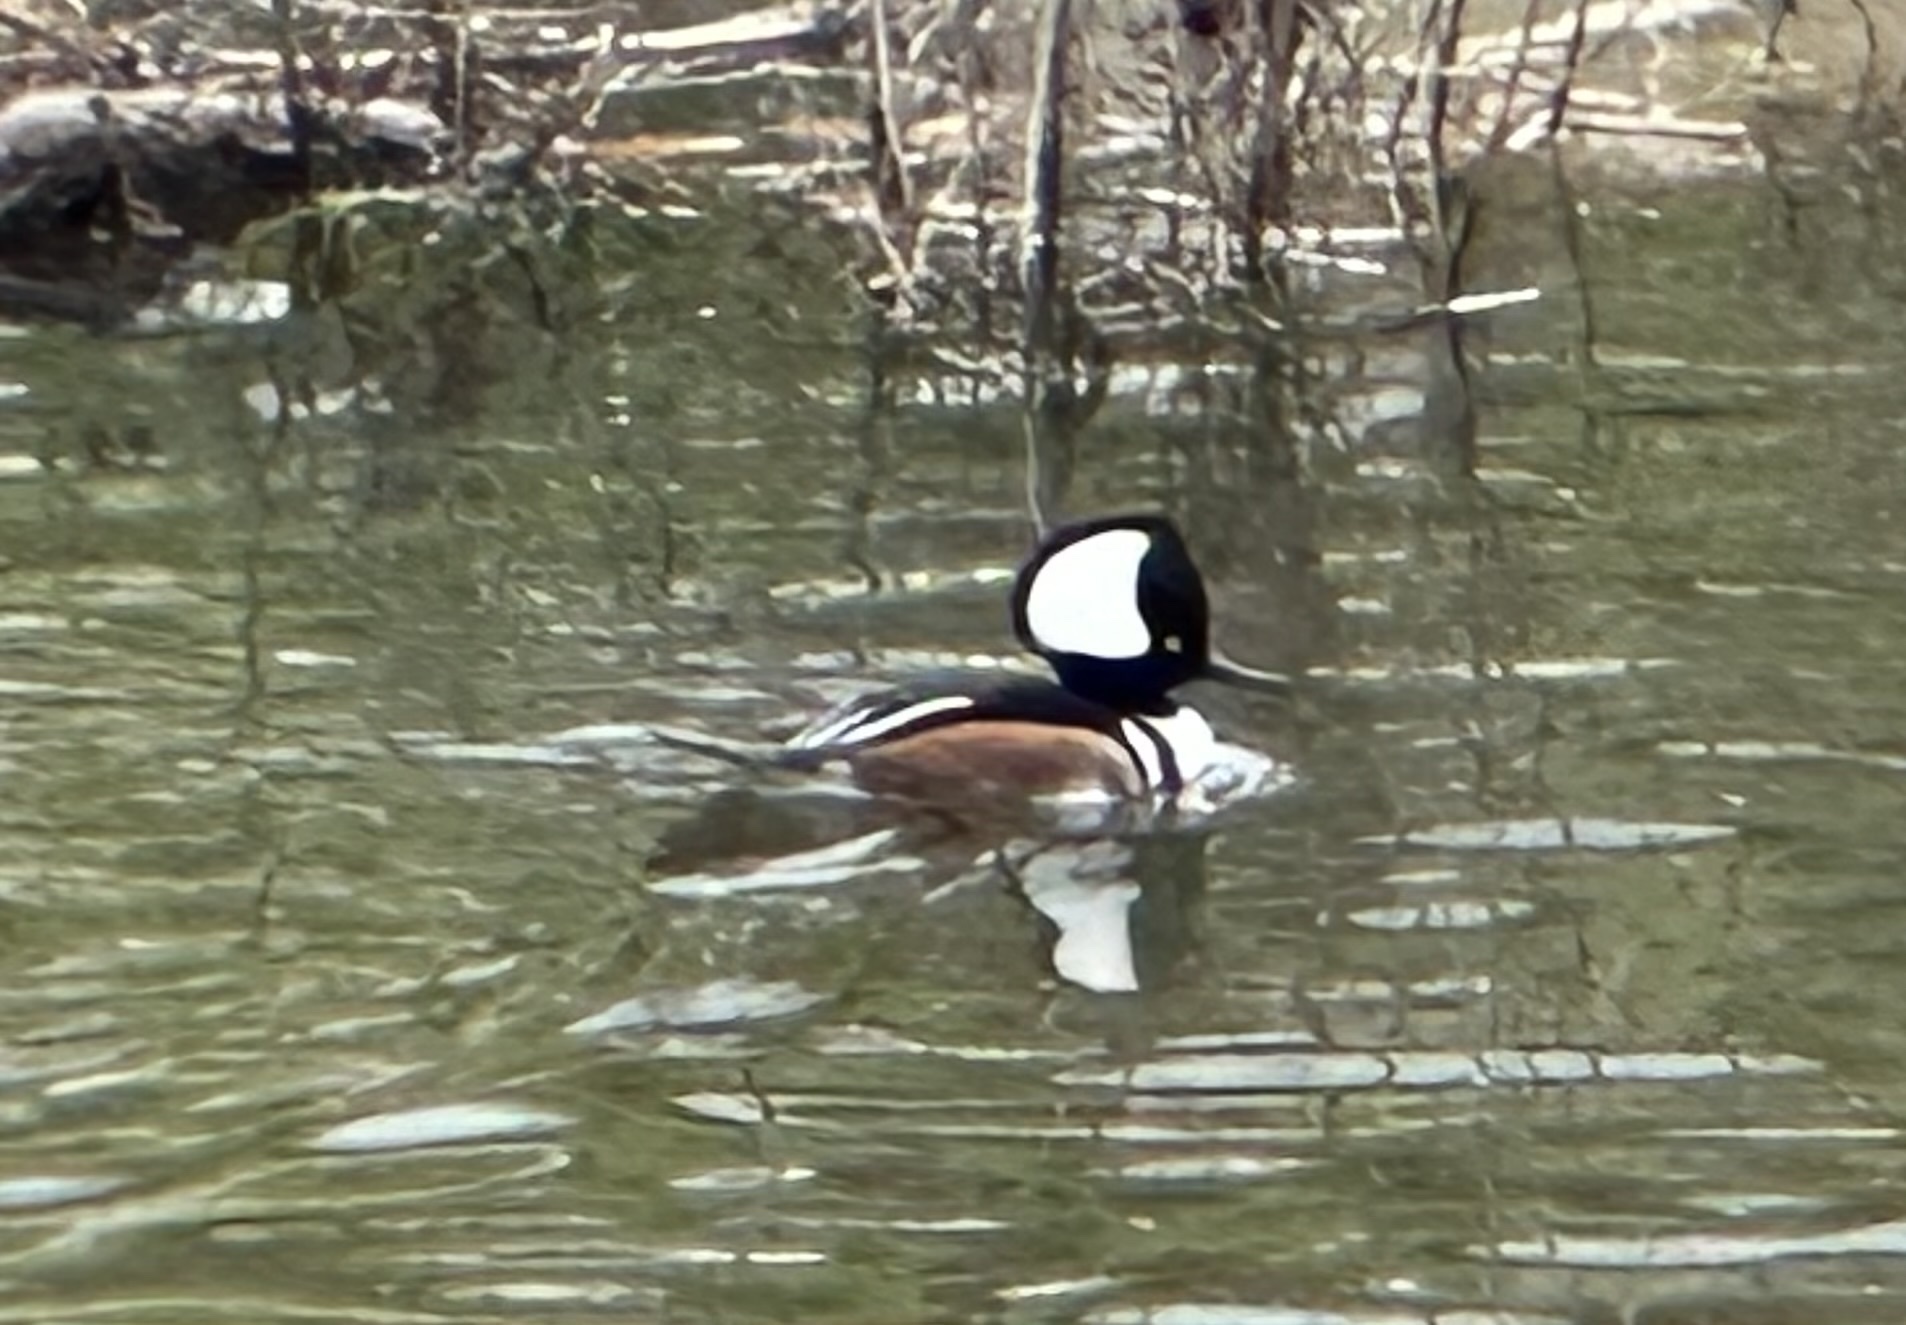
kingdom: Animalia
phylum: Chordata
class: Aves
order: Anseriformes
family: Anatidae
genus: Lophodytes
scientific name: Lophodytes cucullatus
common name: Hooded merganser
